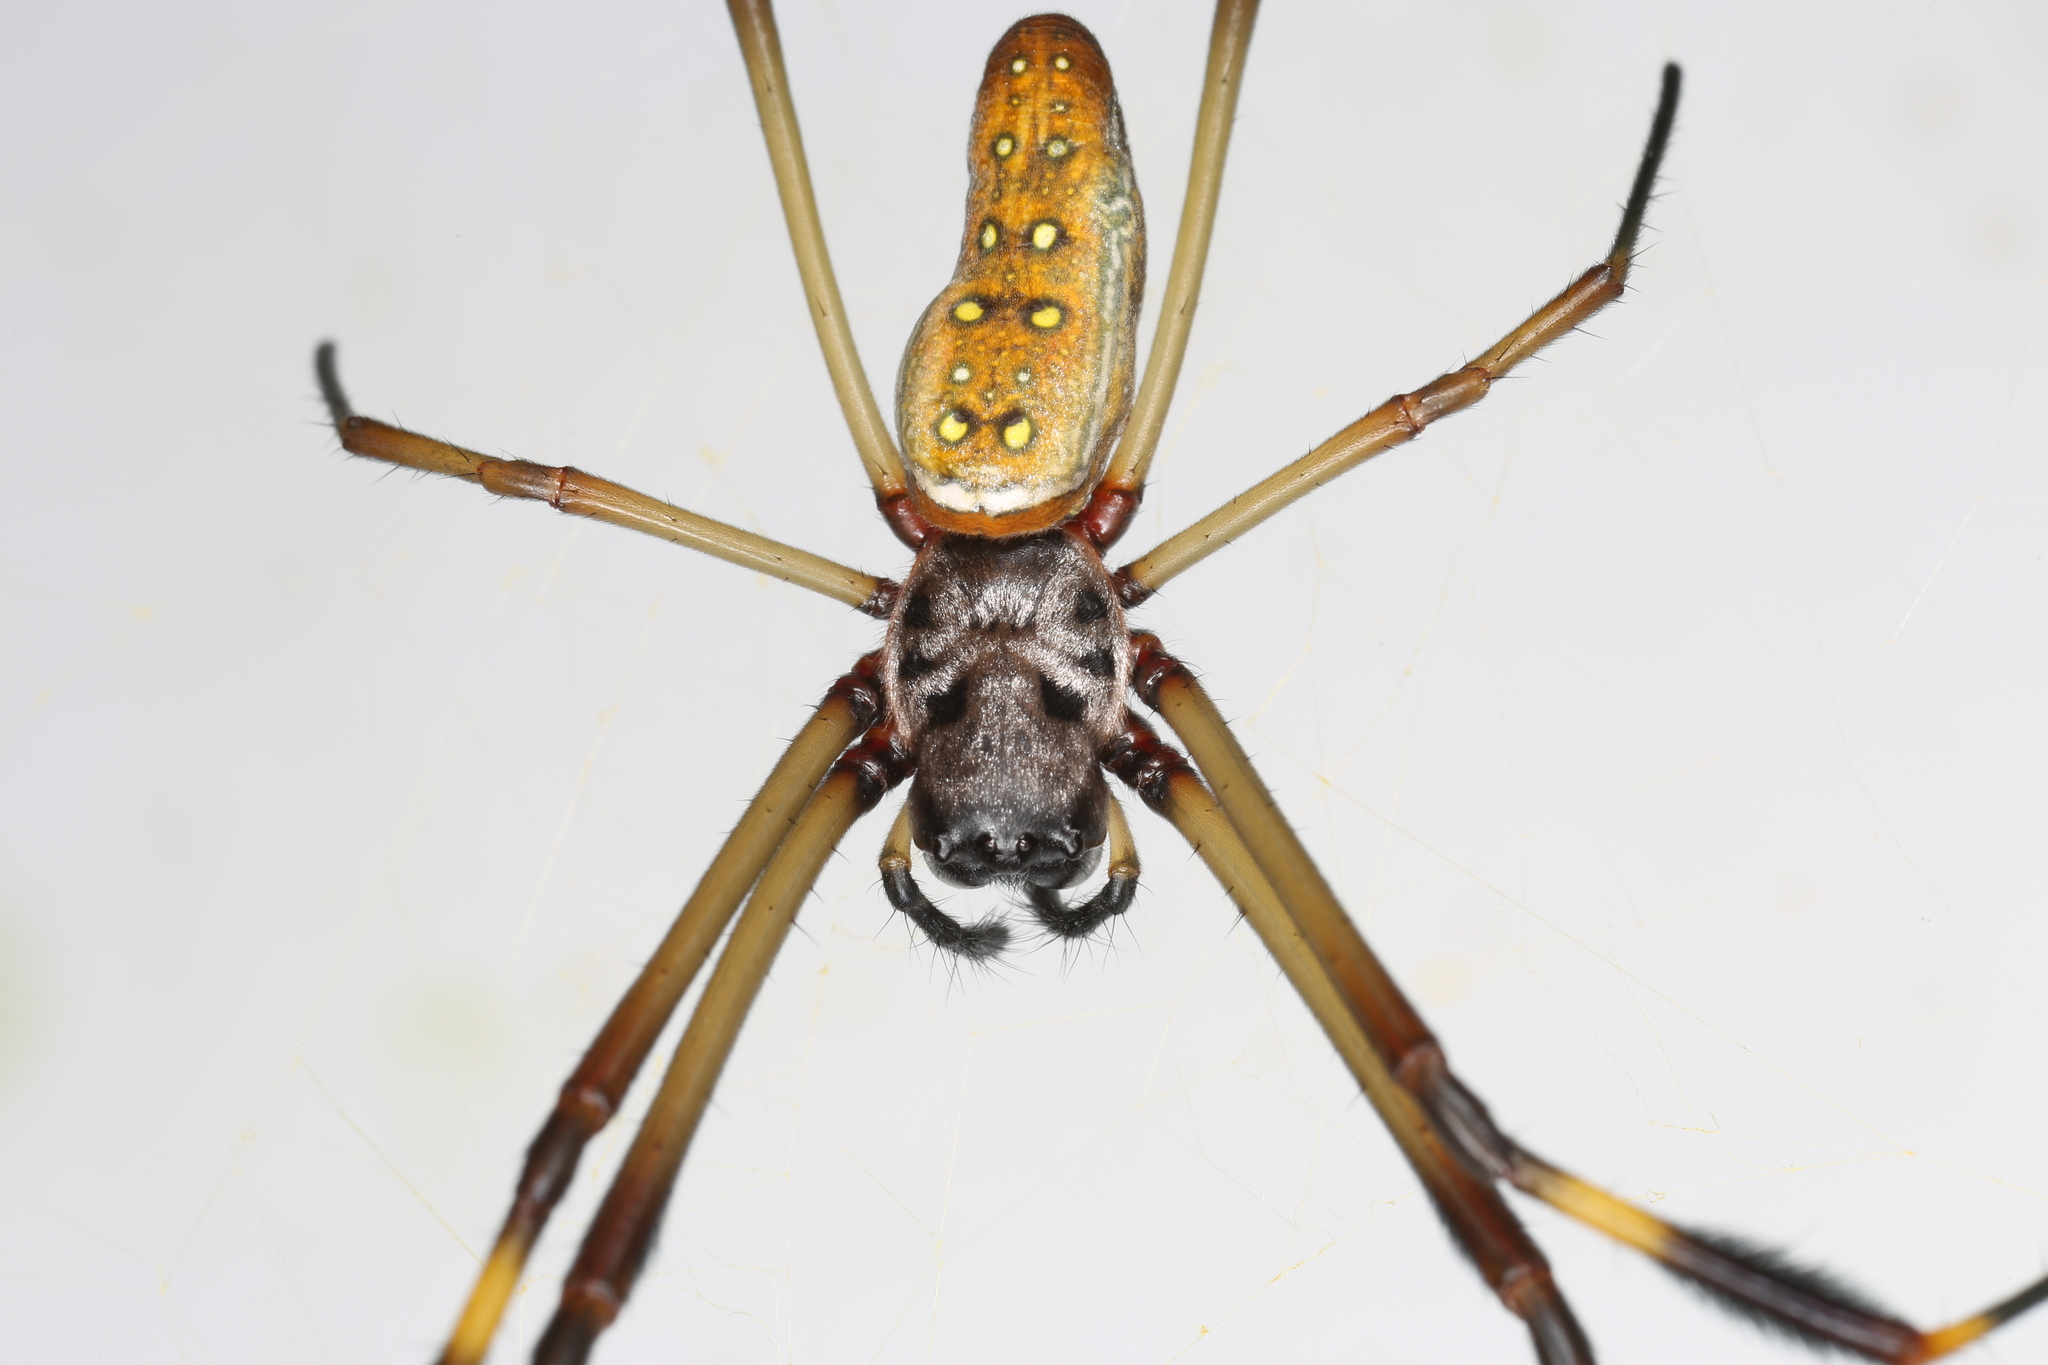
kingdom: Animalia
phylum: Arthropoda
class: Arachnida
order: Araneae
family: Araneidae
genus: Trichonephila
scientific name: Trichonephila clavipes
